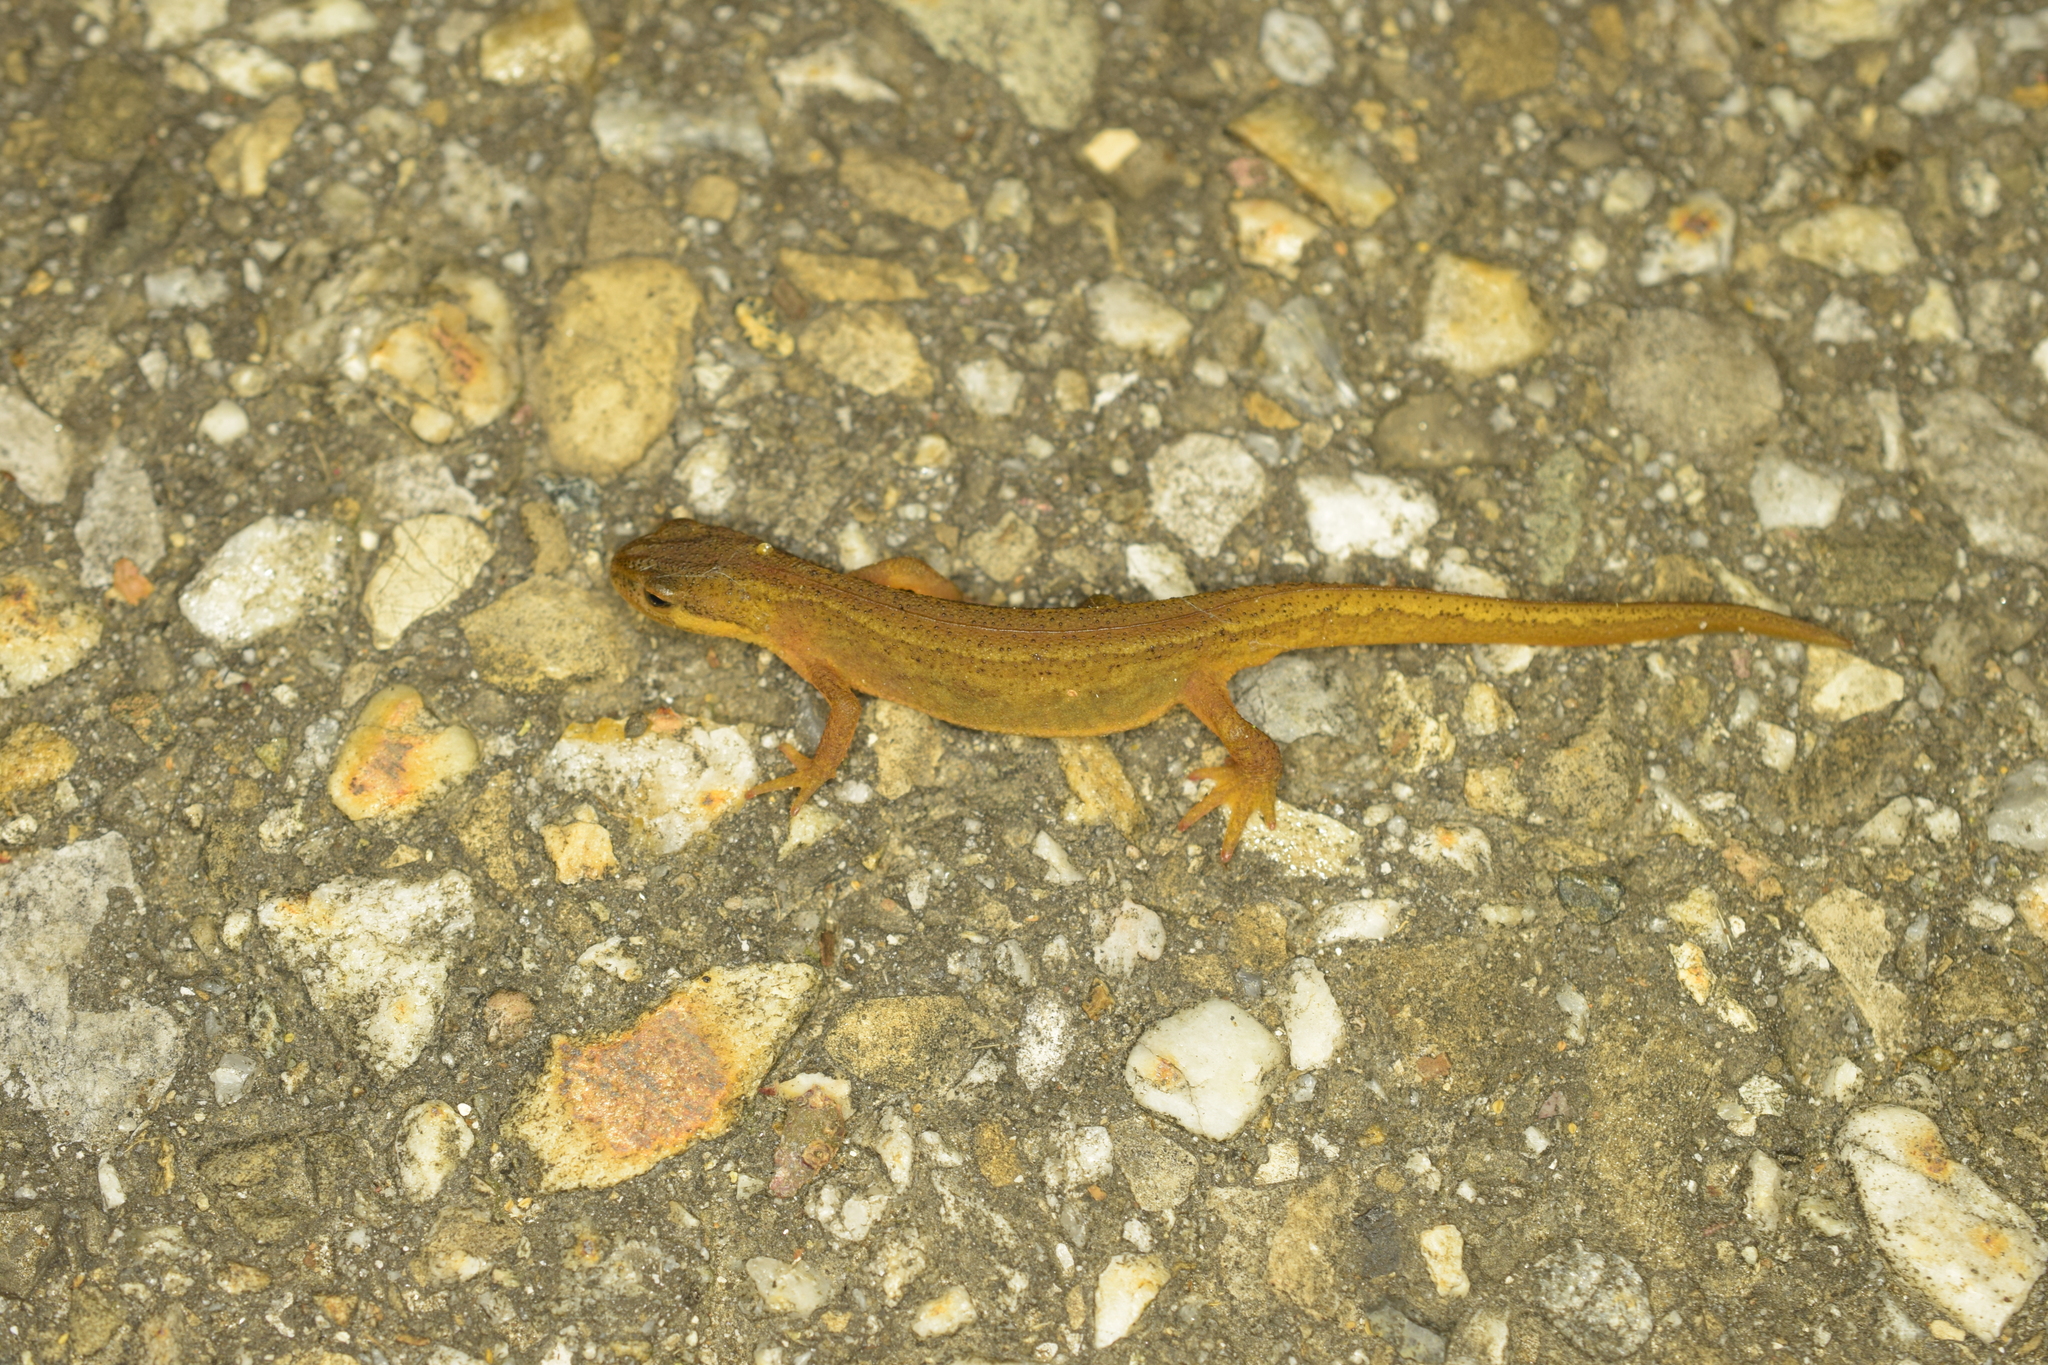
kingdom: Animalia
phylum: Chordata
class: Amphibia
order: Caudata
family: Salamandridae
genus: Lissotriton
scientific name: Lissotriton vulgaris
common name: Smooth newt
